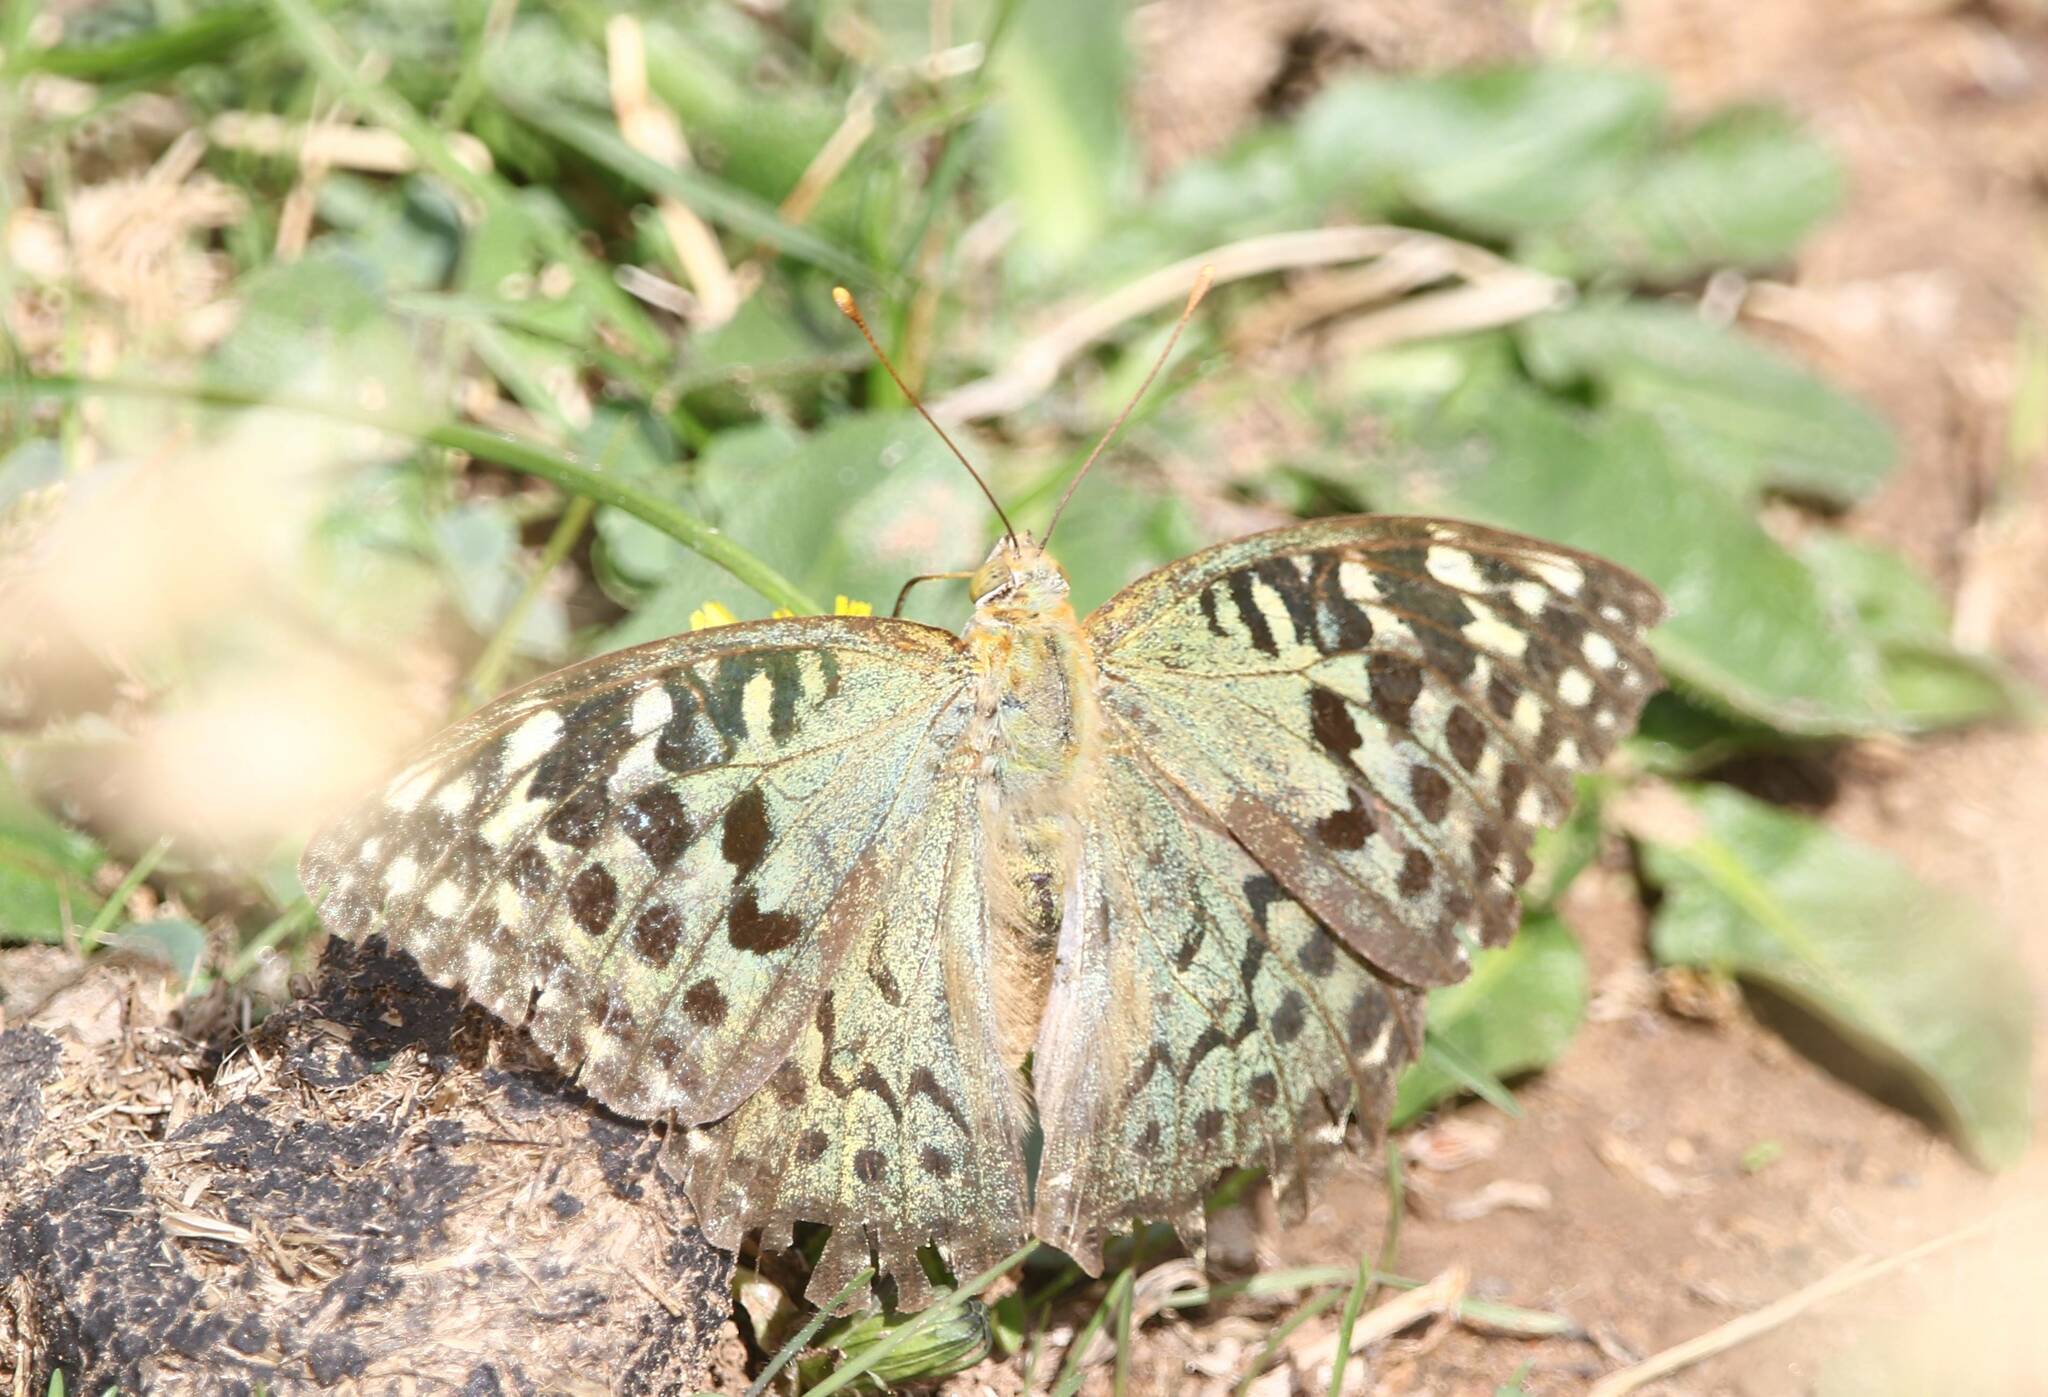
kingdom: Animalia
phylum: Arthropoda
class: Insecta
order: Lepidoptera
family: Nymphalidae
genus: Damora
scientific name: Damora pandora
